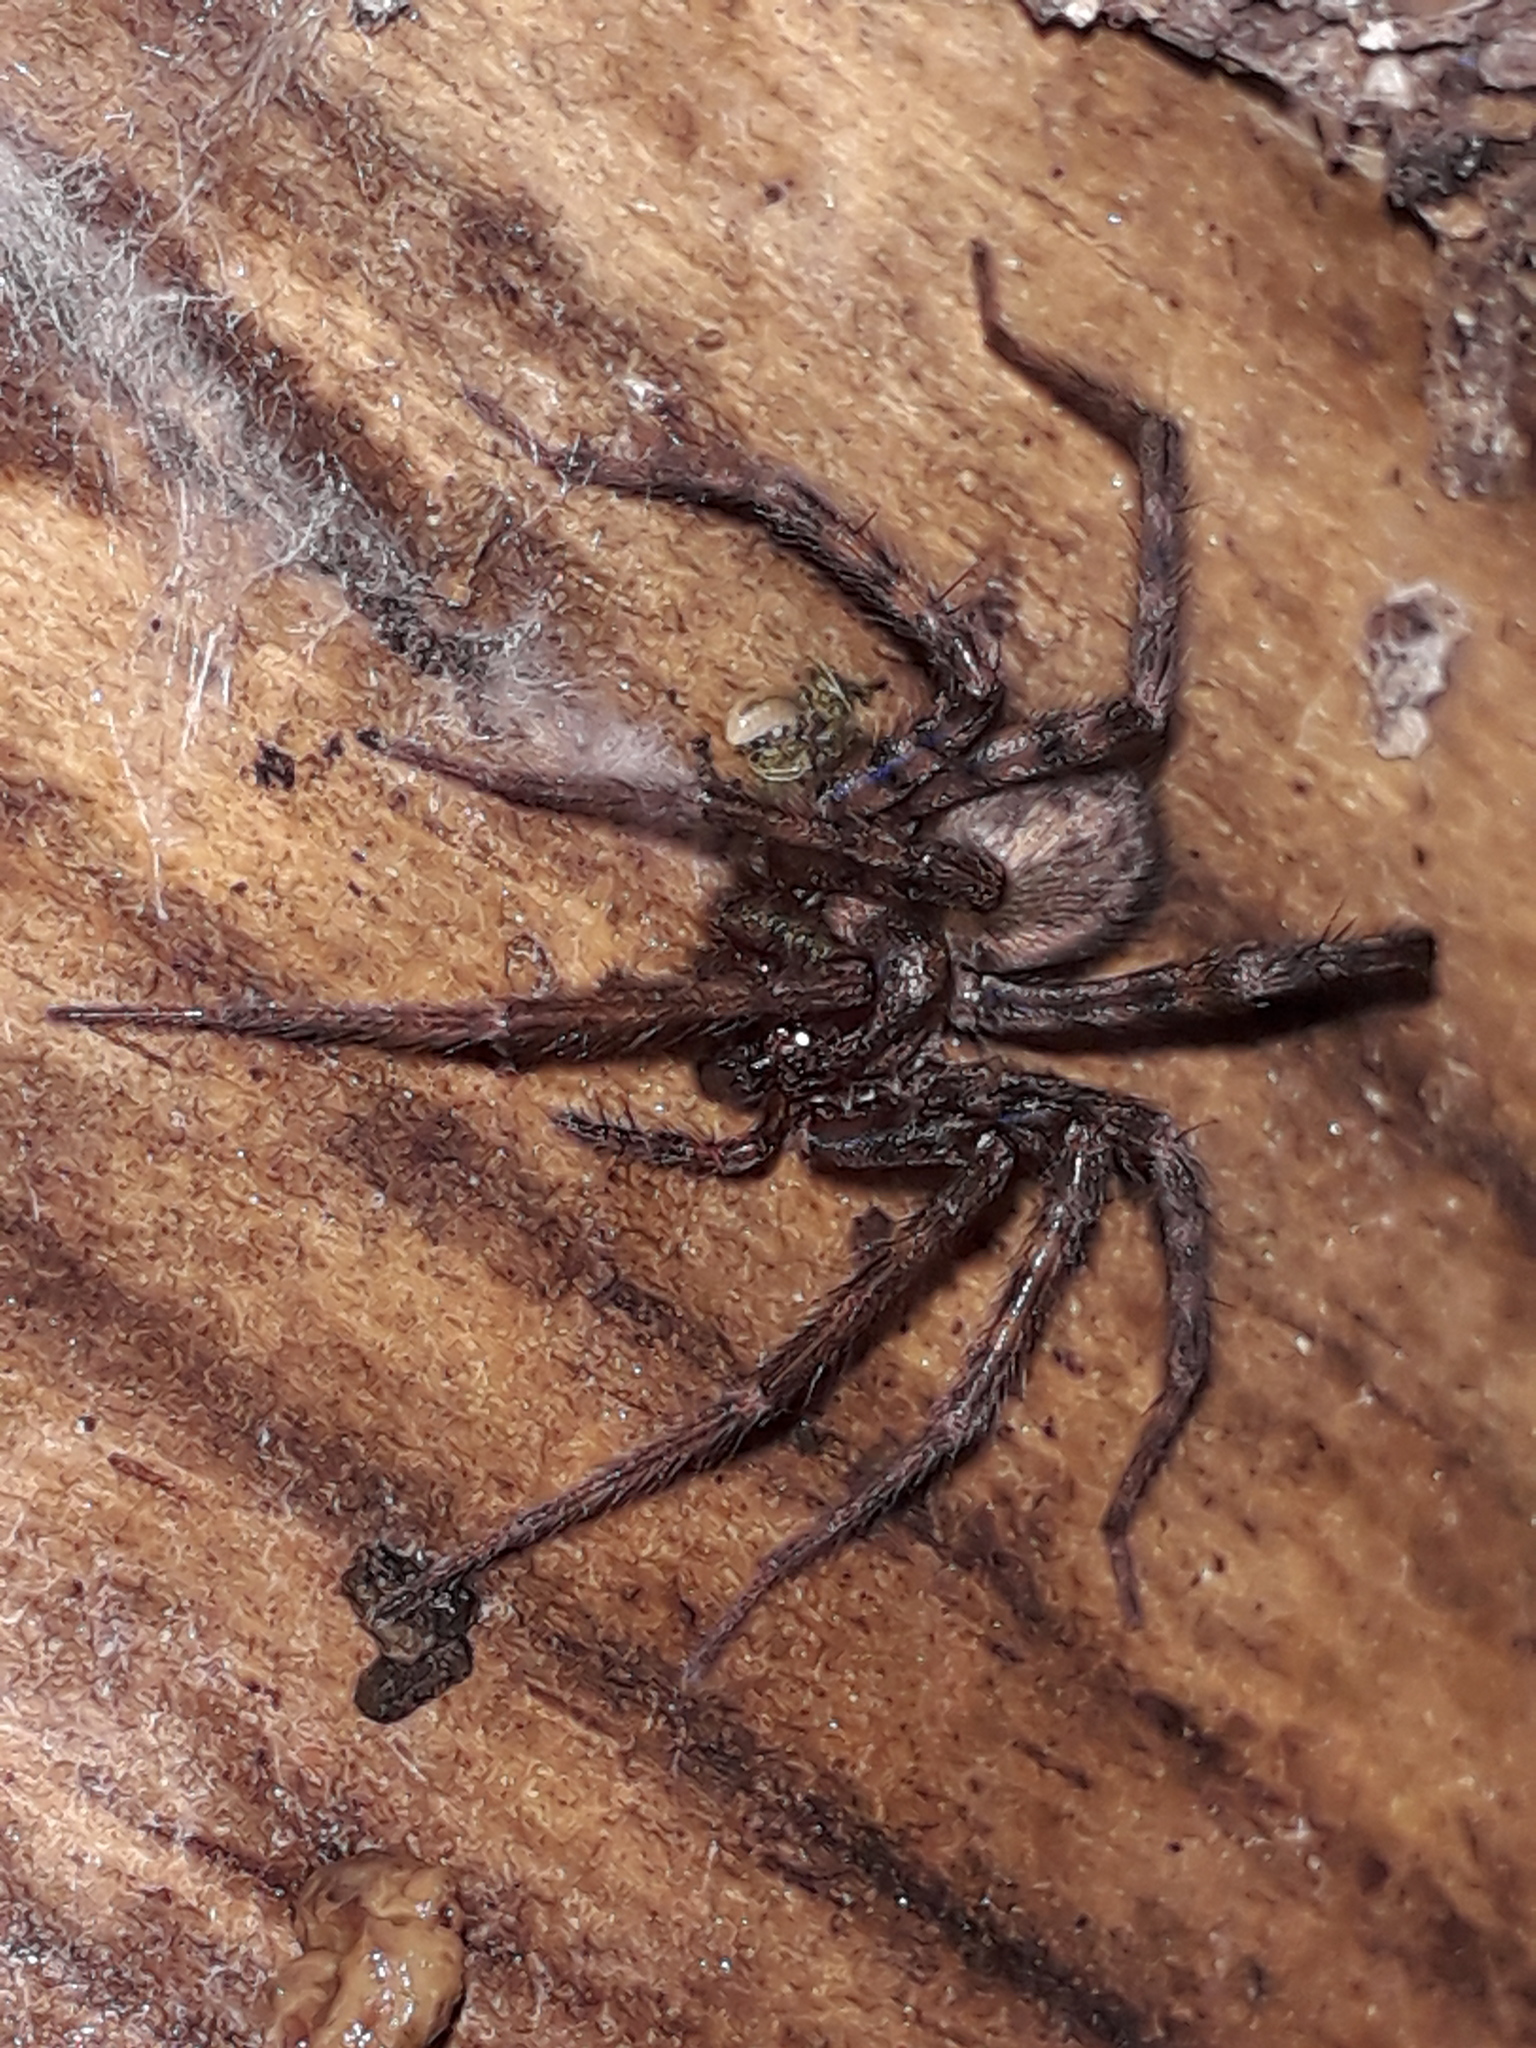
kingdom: Animalia
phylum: Arthropoda
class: Arachnida
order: Araneae
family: Agelenidae
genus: Tegenaria
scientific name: Tegenaria domestica
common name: Barn funnel weaver
